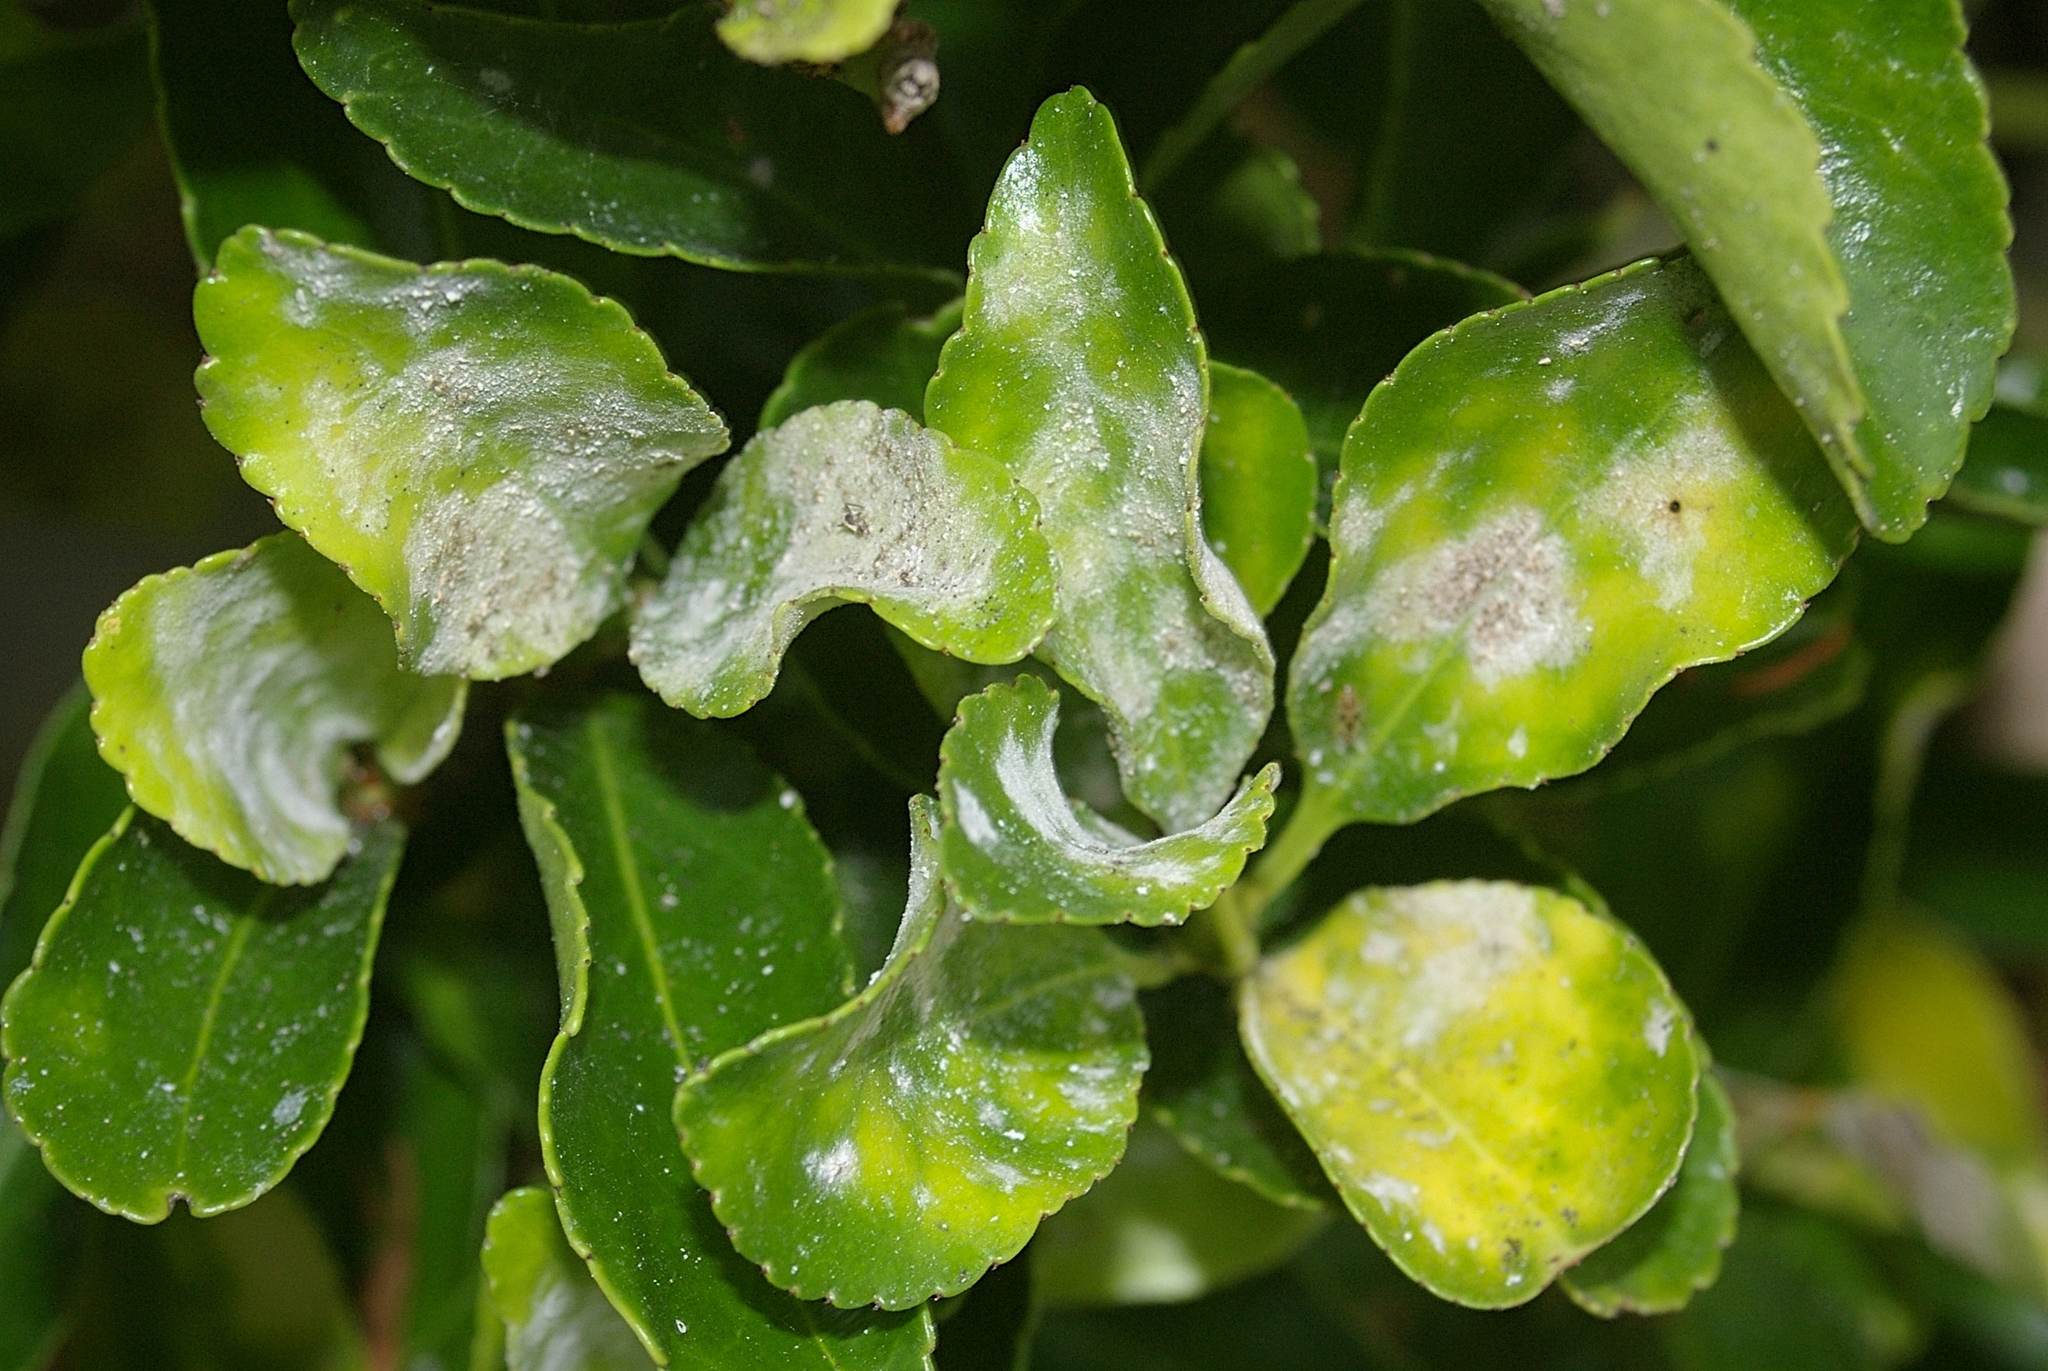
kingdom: Plantae
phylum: Tracheophyta
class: Magnoliopsida
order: Celastrales
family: Celastraceae
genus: Euonymus
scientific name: Euonymus japonicus
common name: Japanese spindletree
